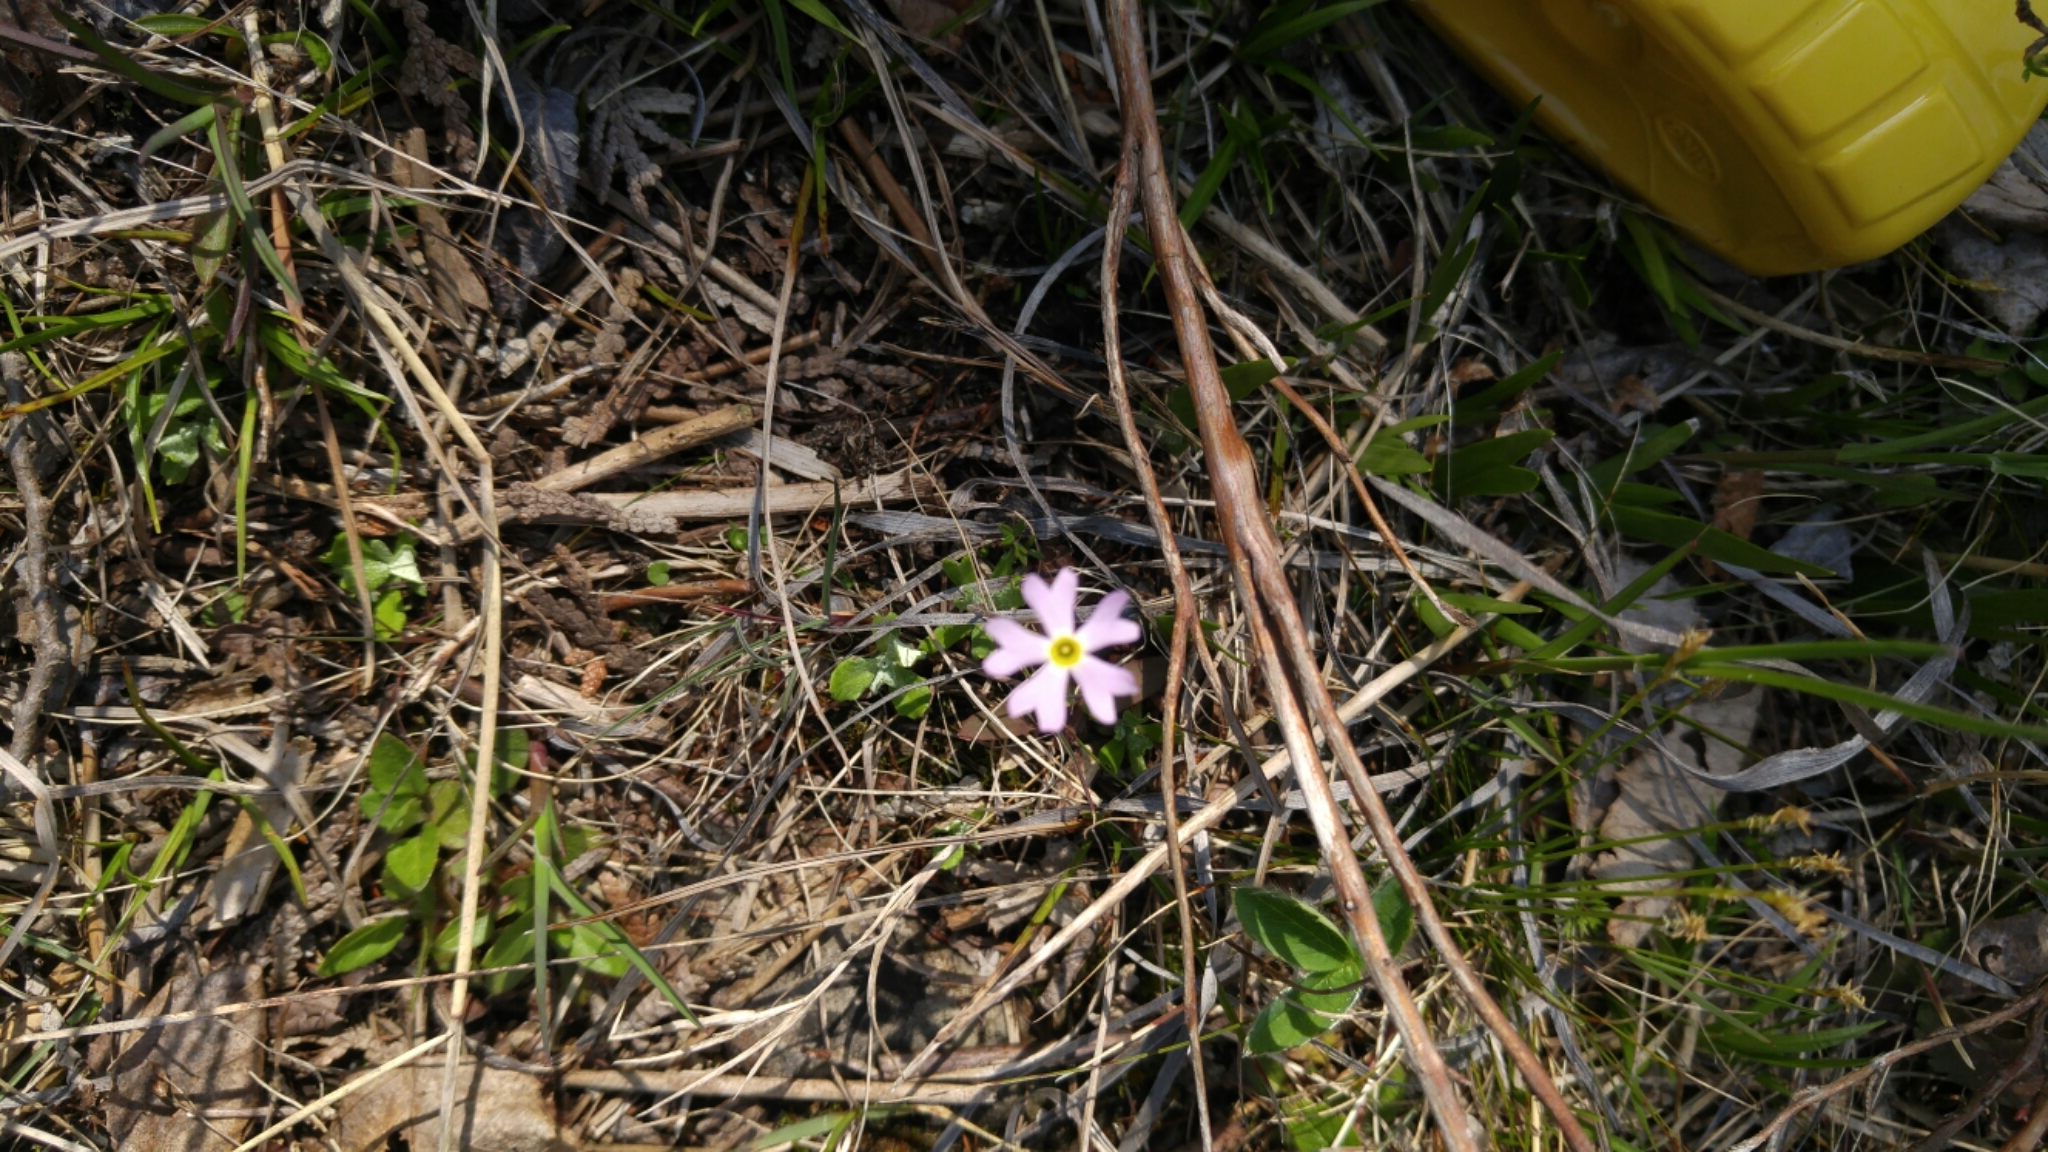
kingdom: Plantae
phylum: Tracheophyta
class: Magnoliopsida
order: Ericales
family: Primulaceae
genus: Primula
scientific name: Primula mistassinica
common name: Bird's-eye primrose
